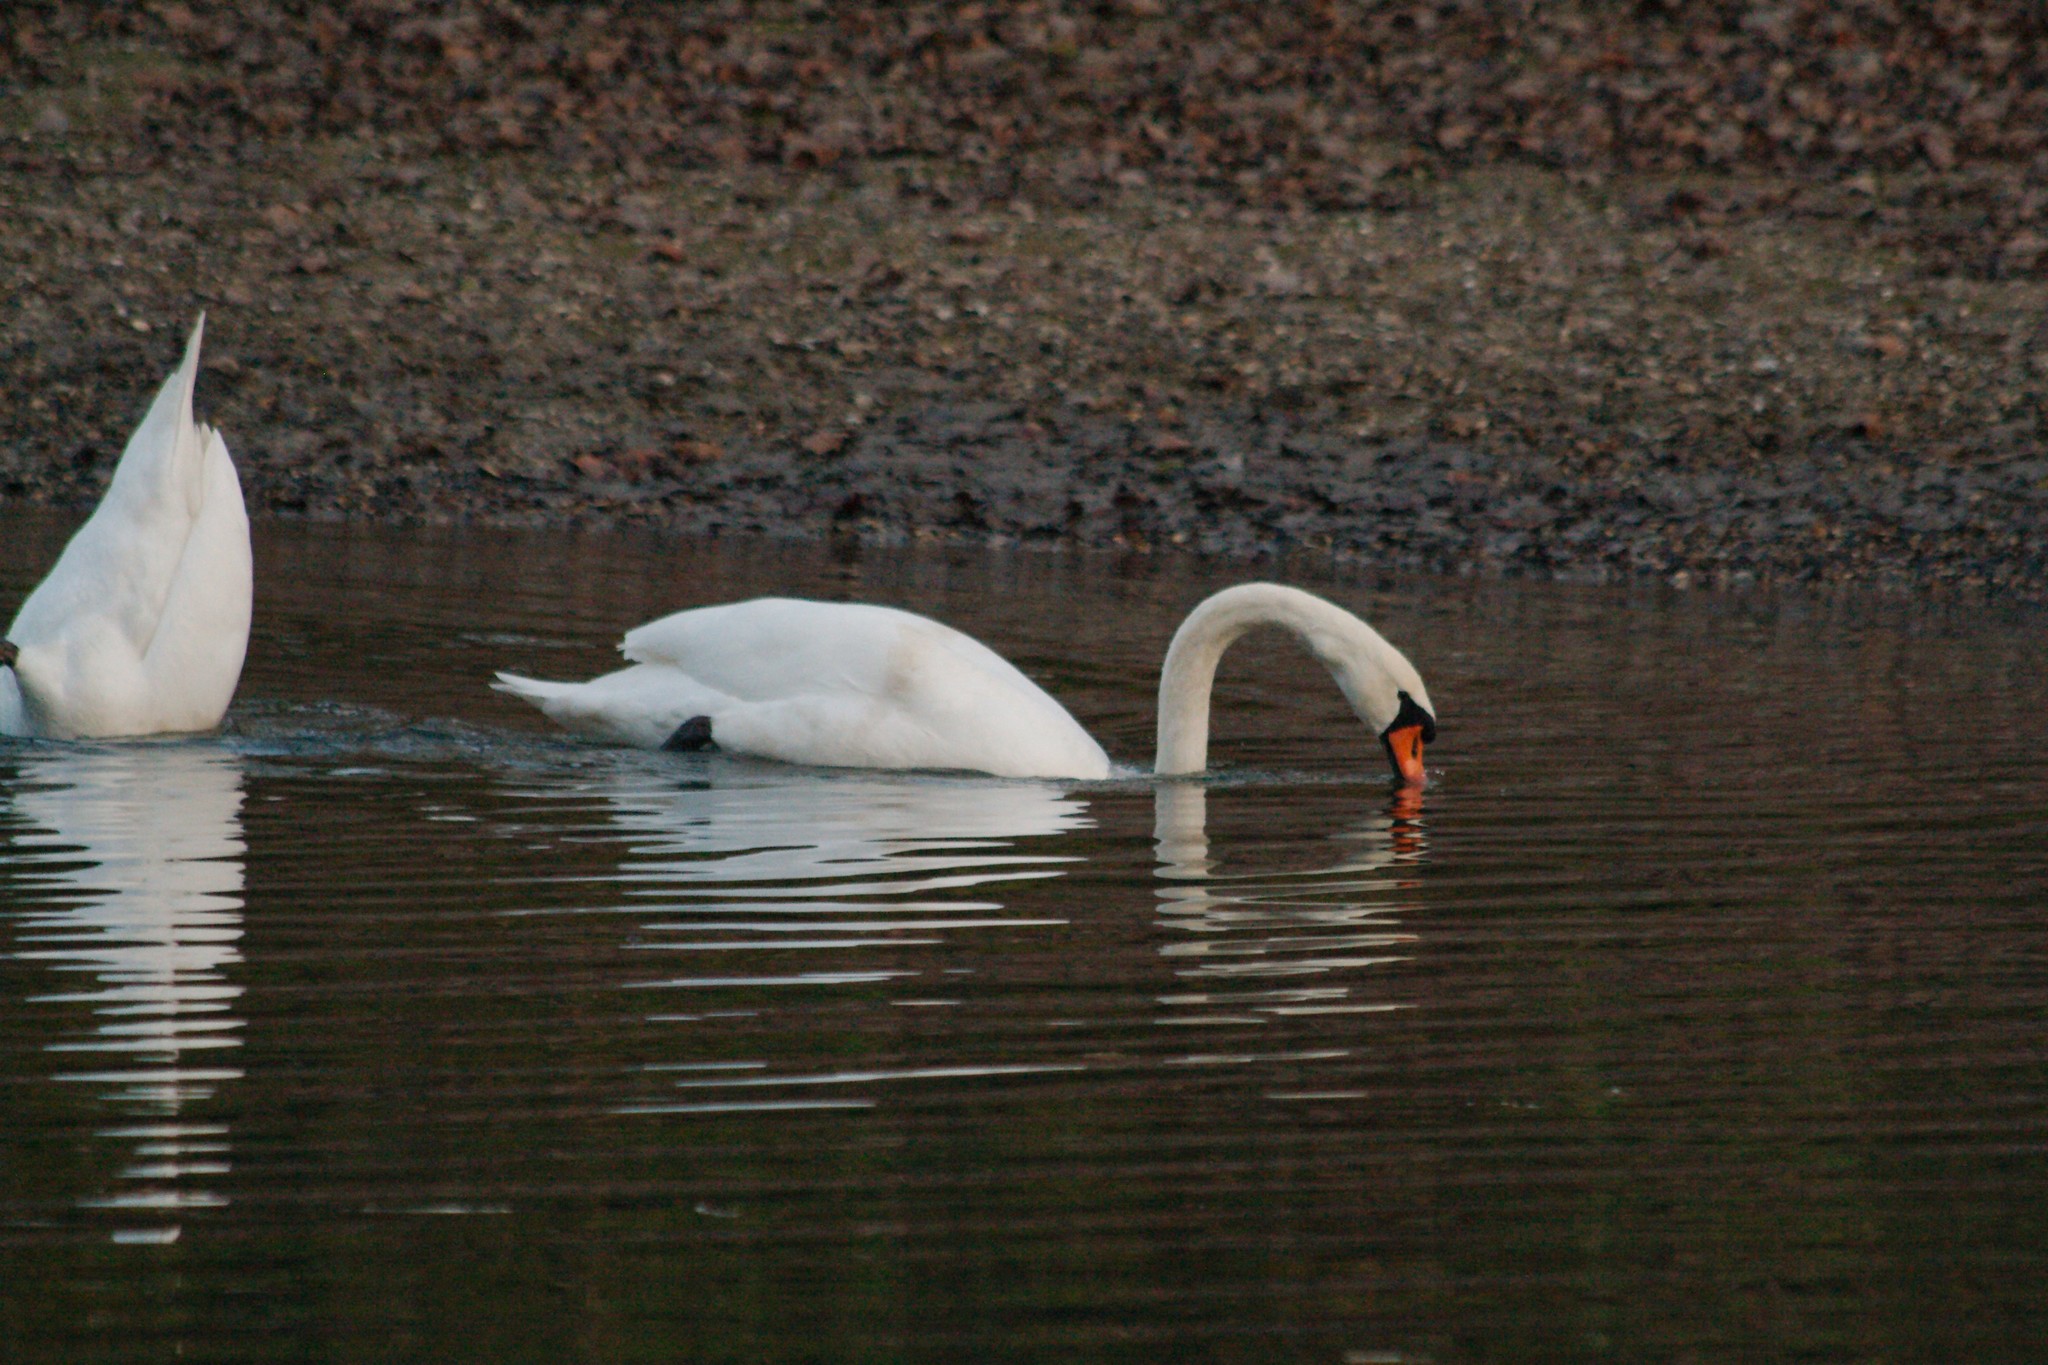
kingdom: Animalia
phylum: Chordata
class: Aves
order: Anseriformes
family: Anatidae
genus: Cygnus
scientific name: Cygnus olor
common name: Mute swan
